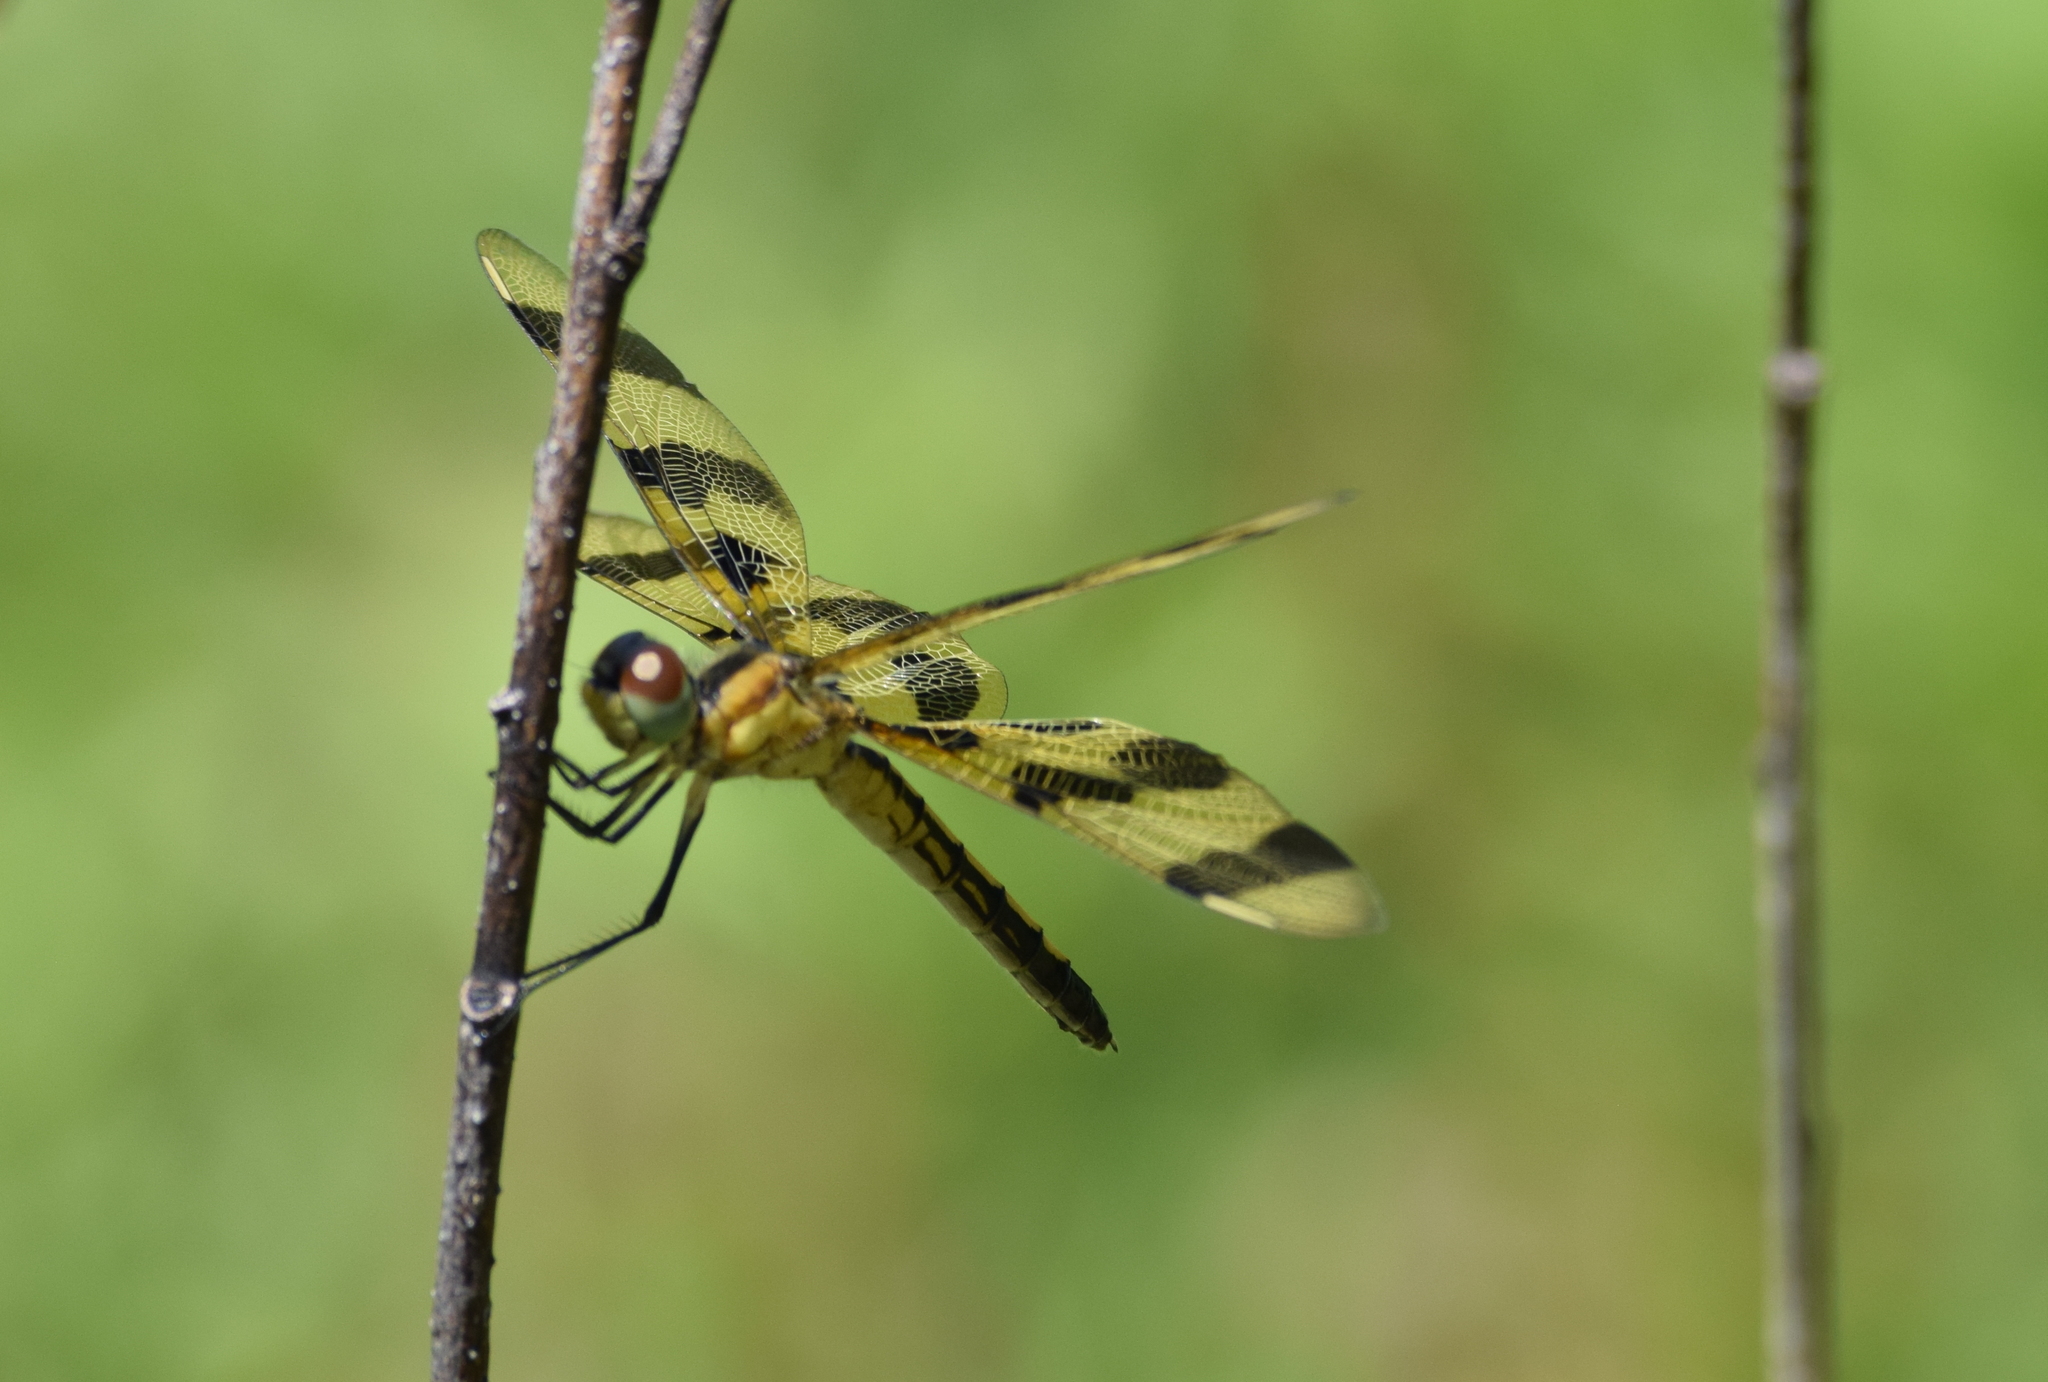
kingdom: Animalia
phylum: Arthropoda
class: Insecta
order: Odonata
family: Libellulidae
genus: Celithemis
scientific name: Celithemis eponina
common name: Halloween pennant
